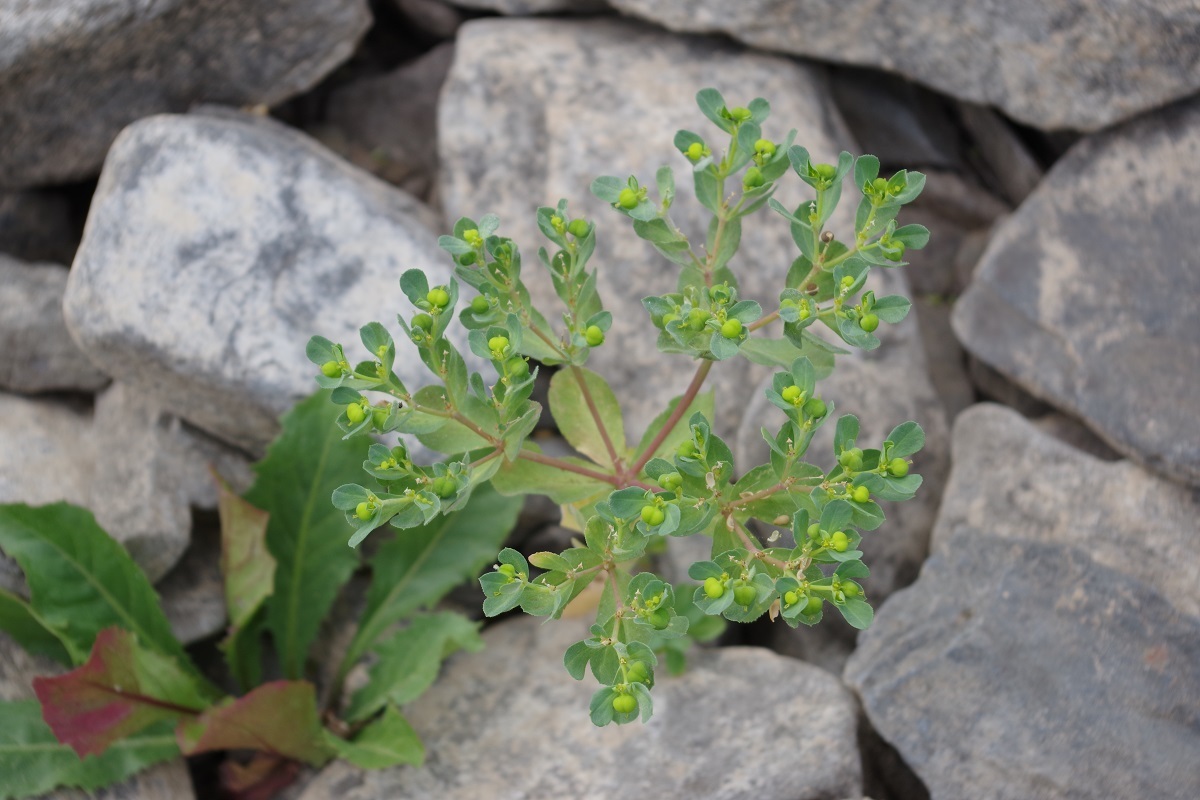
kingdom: Plantae
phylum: Tracheophyta
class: Magnoliopsida
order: Malpighiales
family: Euphorbiaceae
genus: Euphorbia
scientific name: Euphorbia helioscopia
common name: Sun spurge
